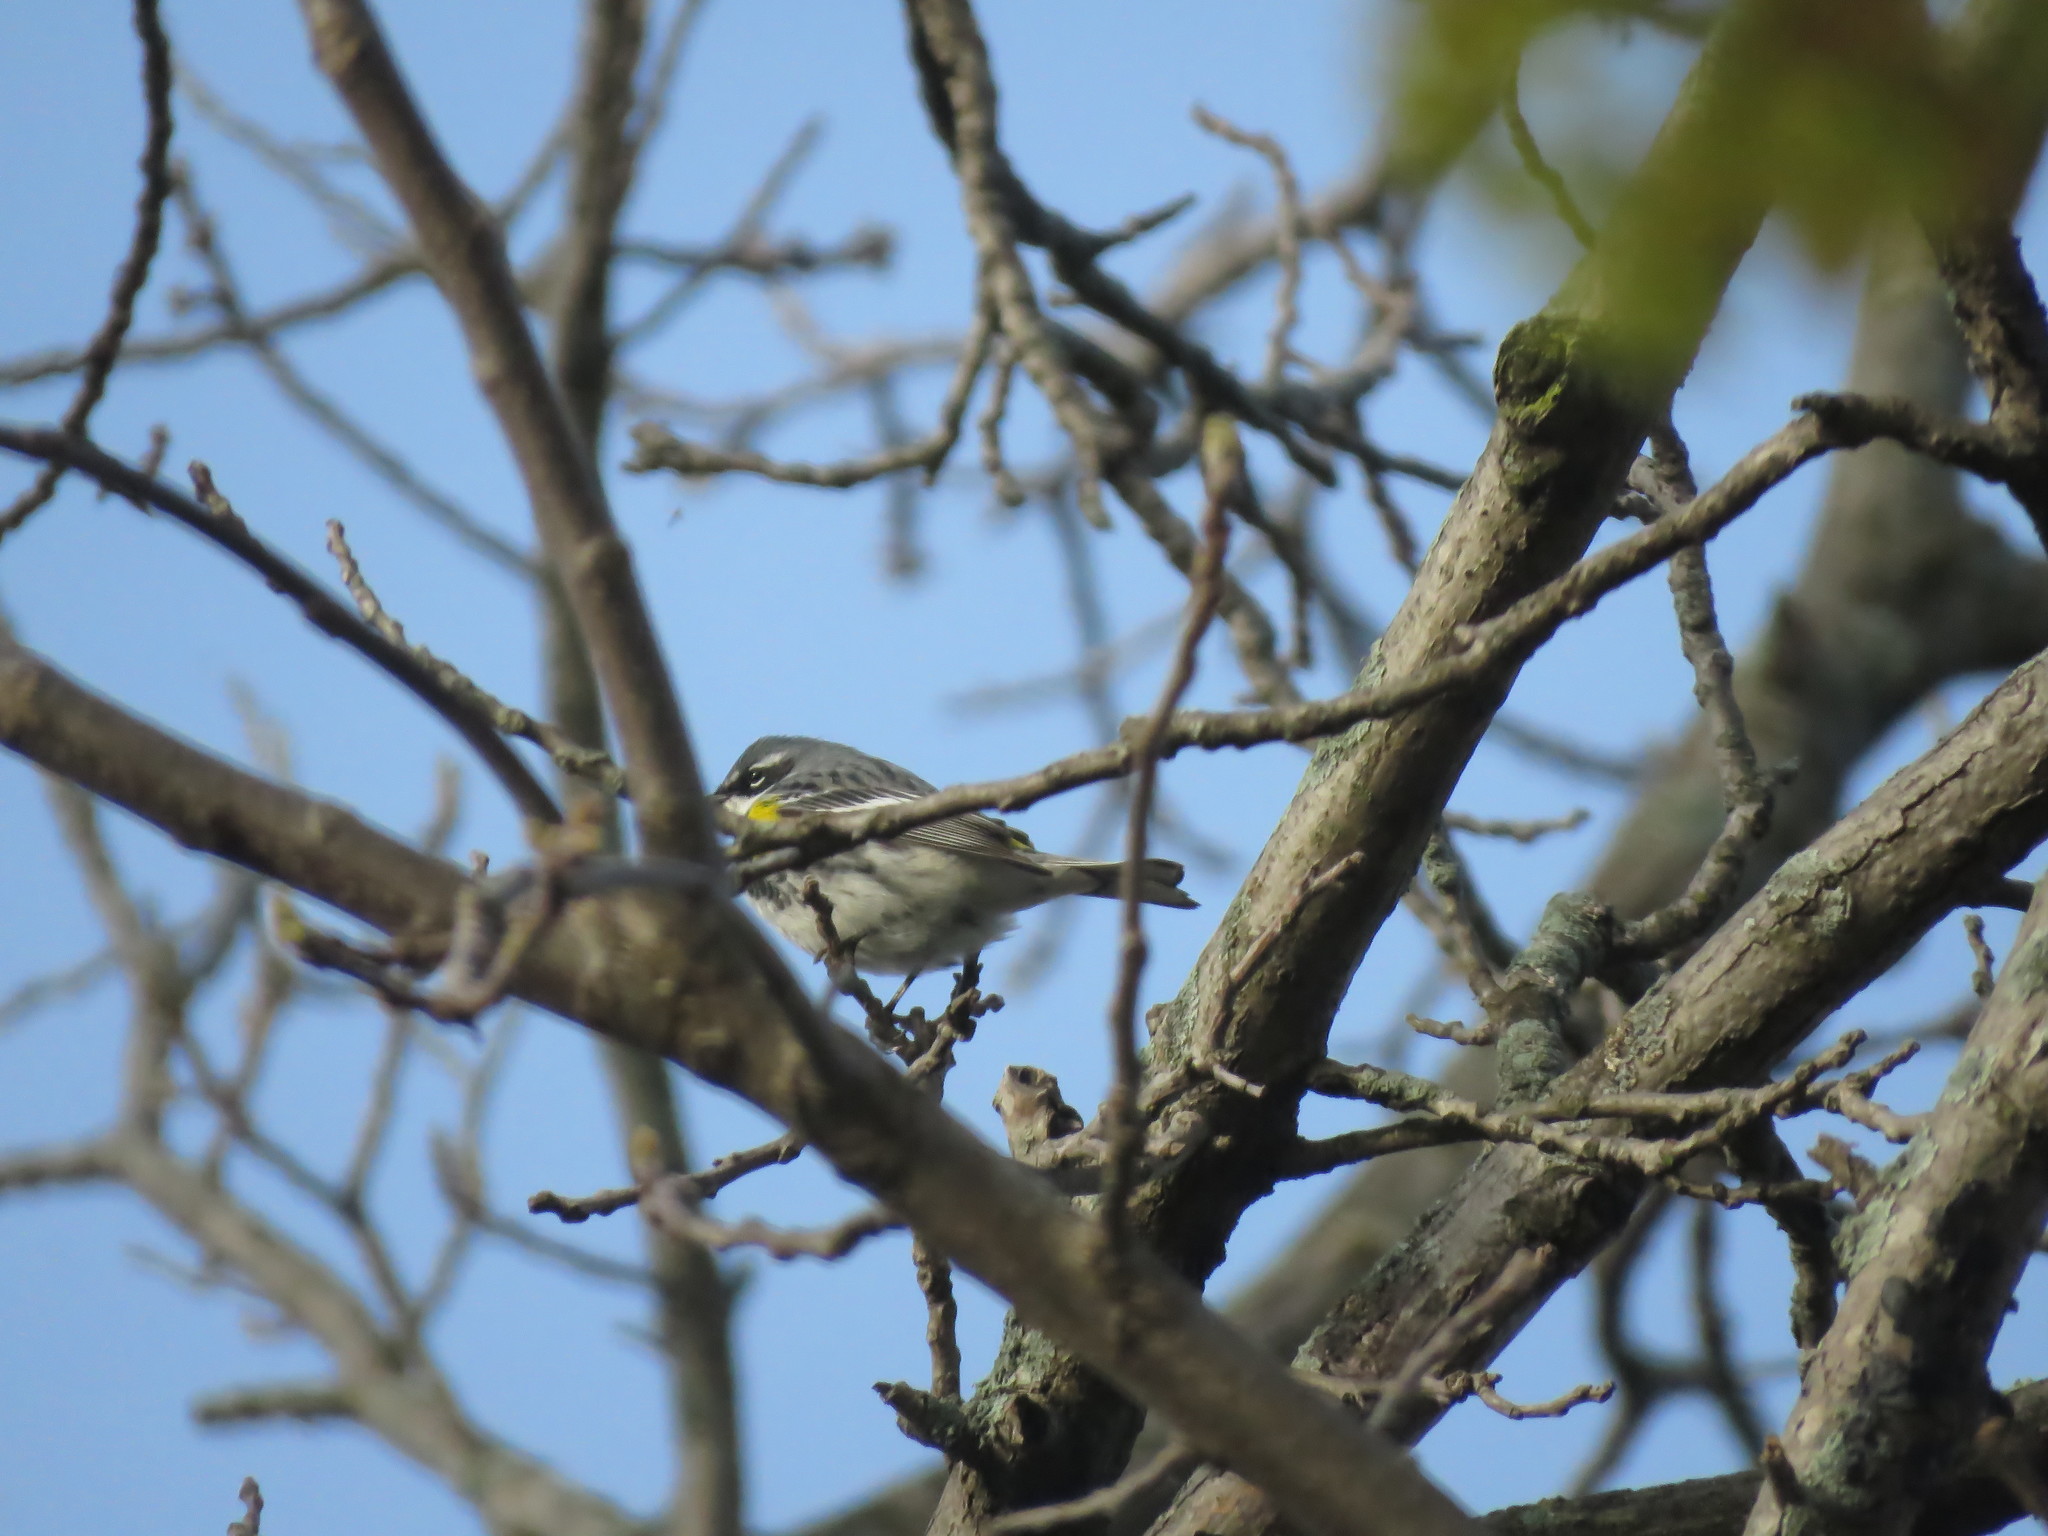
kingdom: Animalia
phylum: Chordata
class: Aves
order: Passeriformes
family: Parulidae
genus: Setophaga
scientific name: Setophaga coronata
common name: Myrtle warbler
